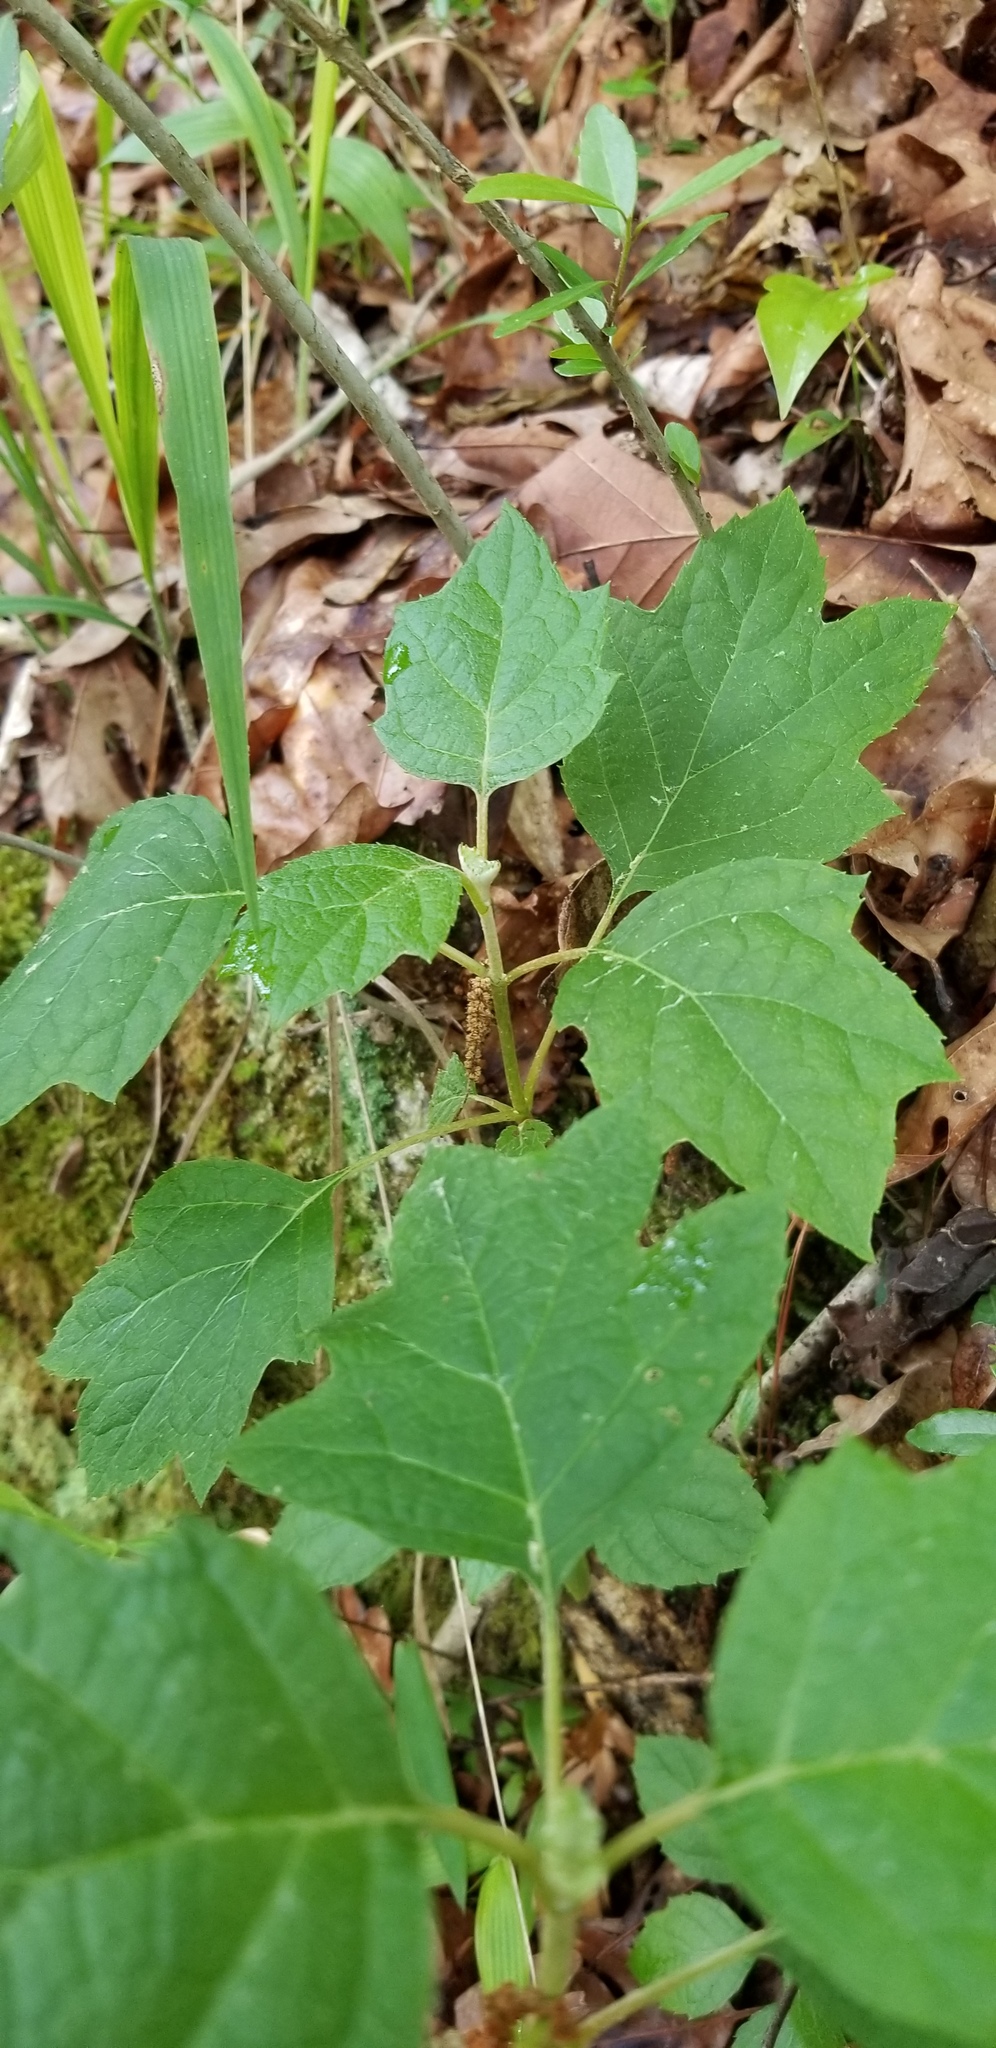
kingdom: Plantae
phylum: Tracheophyta
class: Magnoliopsida
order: Cornales
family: Hydrangeaceae
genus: Hydrangea
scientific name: Hydrangea quercifolia
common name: Oak-leaf hydrangea
